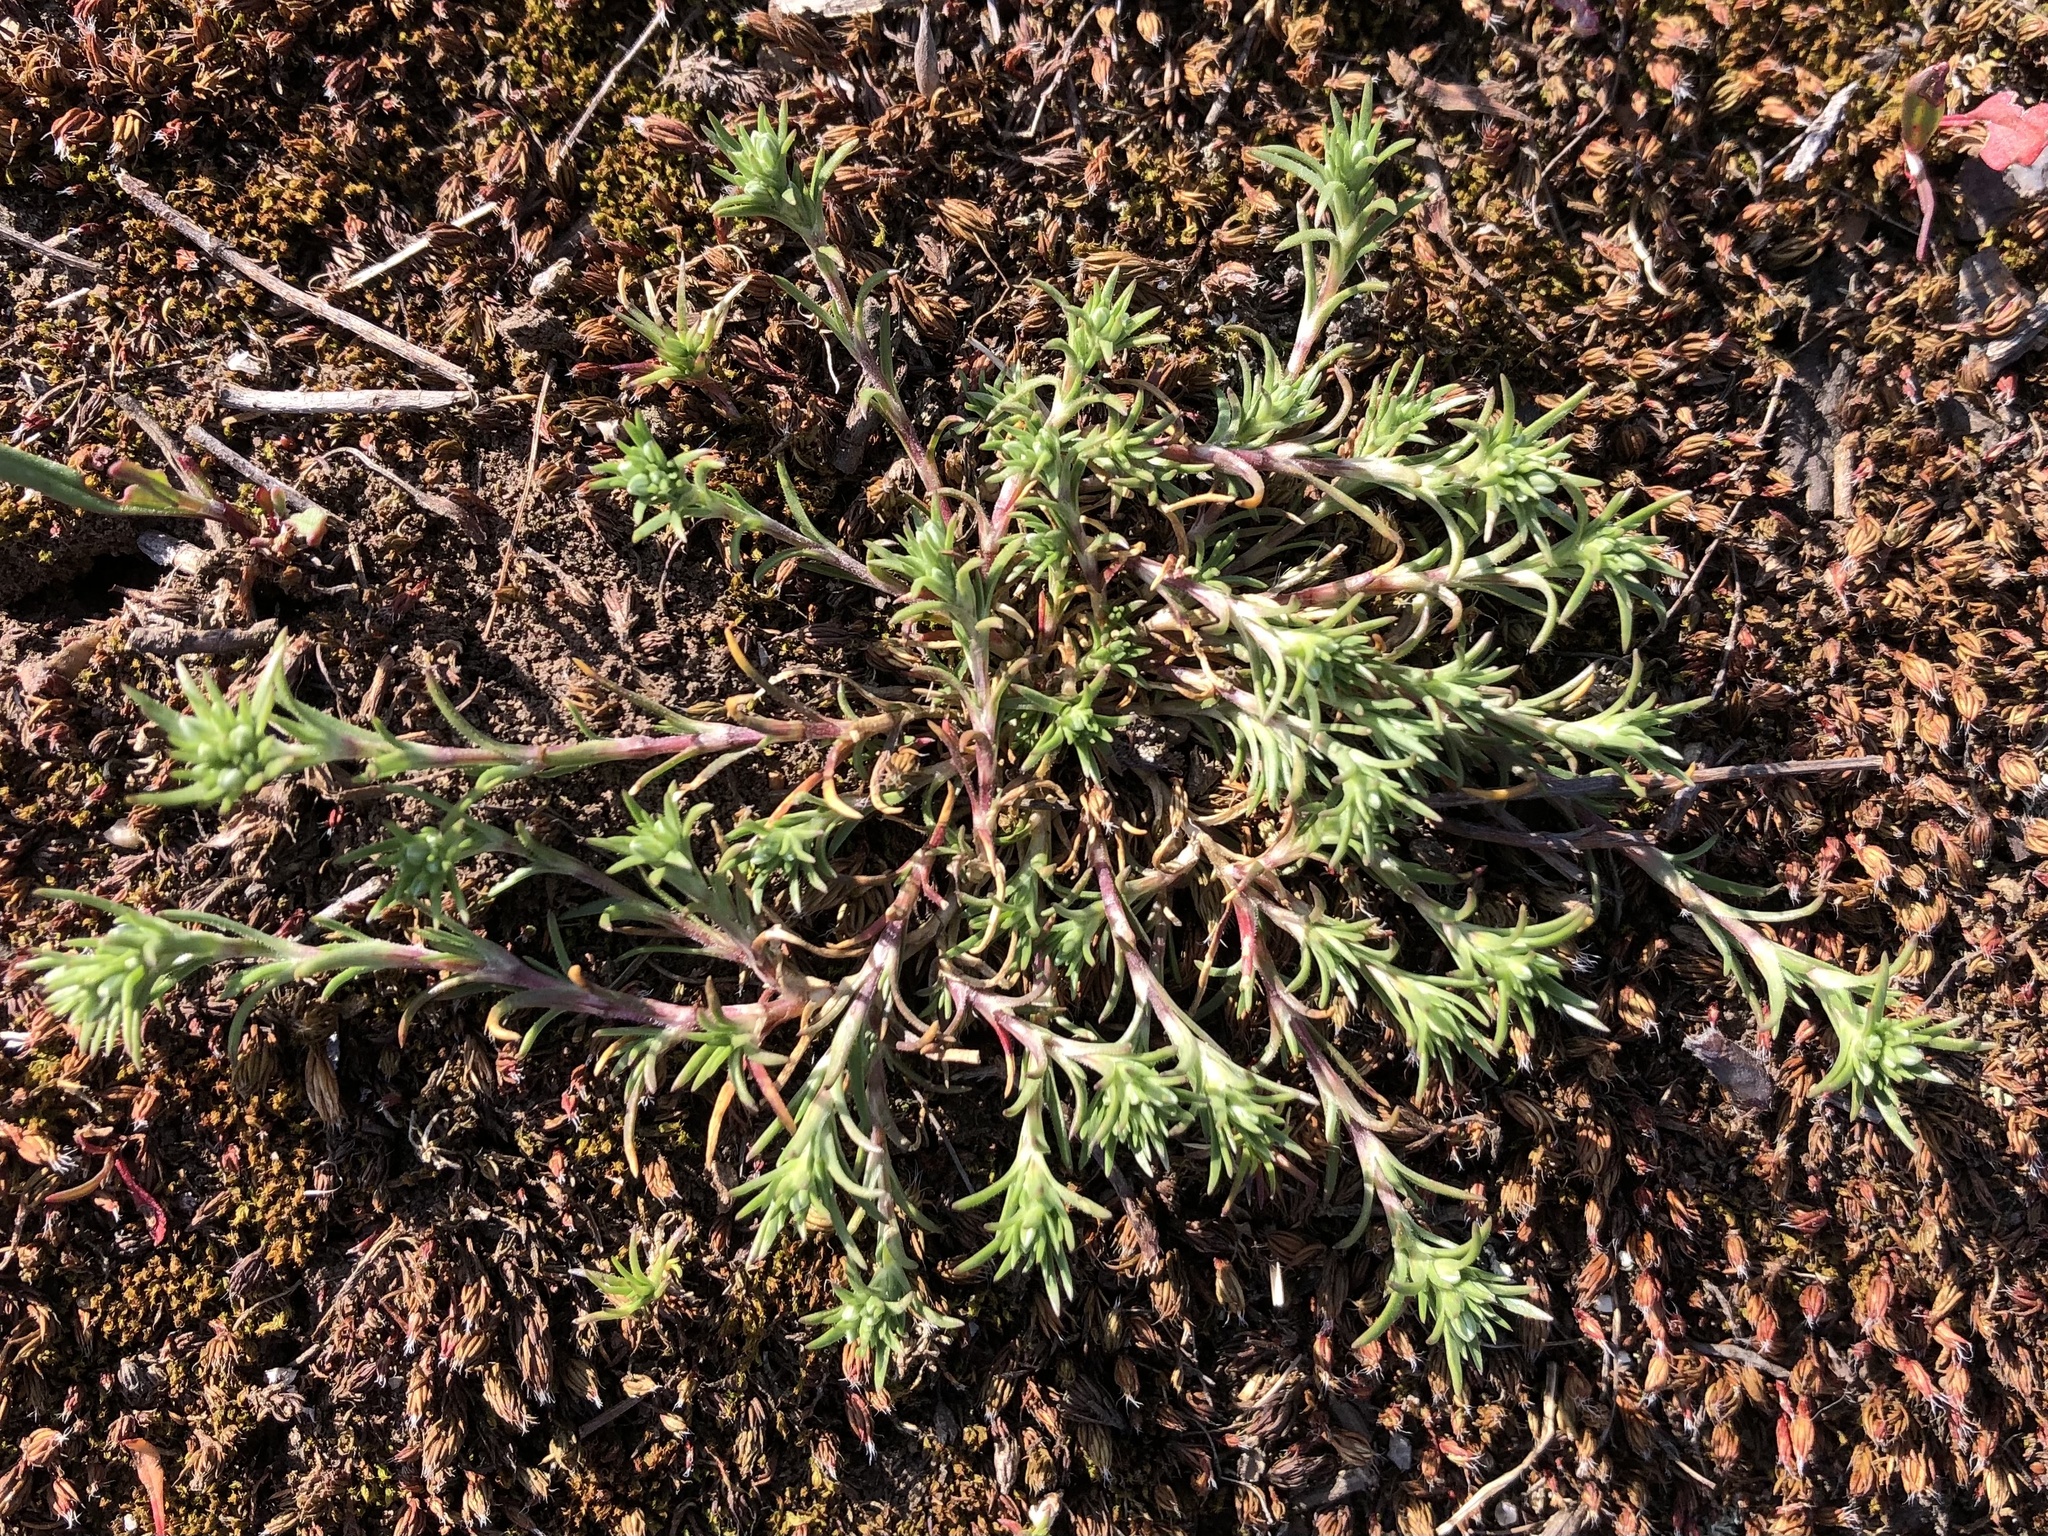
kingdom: Plantae
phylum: Tracheophyta
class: Magnoliopsida
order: Caryophyllales
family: Caryophyllaceae
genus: Scleranthus
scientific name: Scleranthus perennis
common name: Perennial knawel
